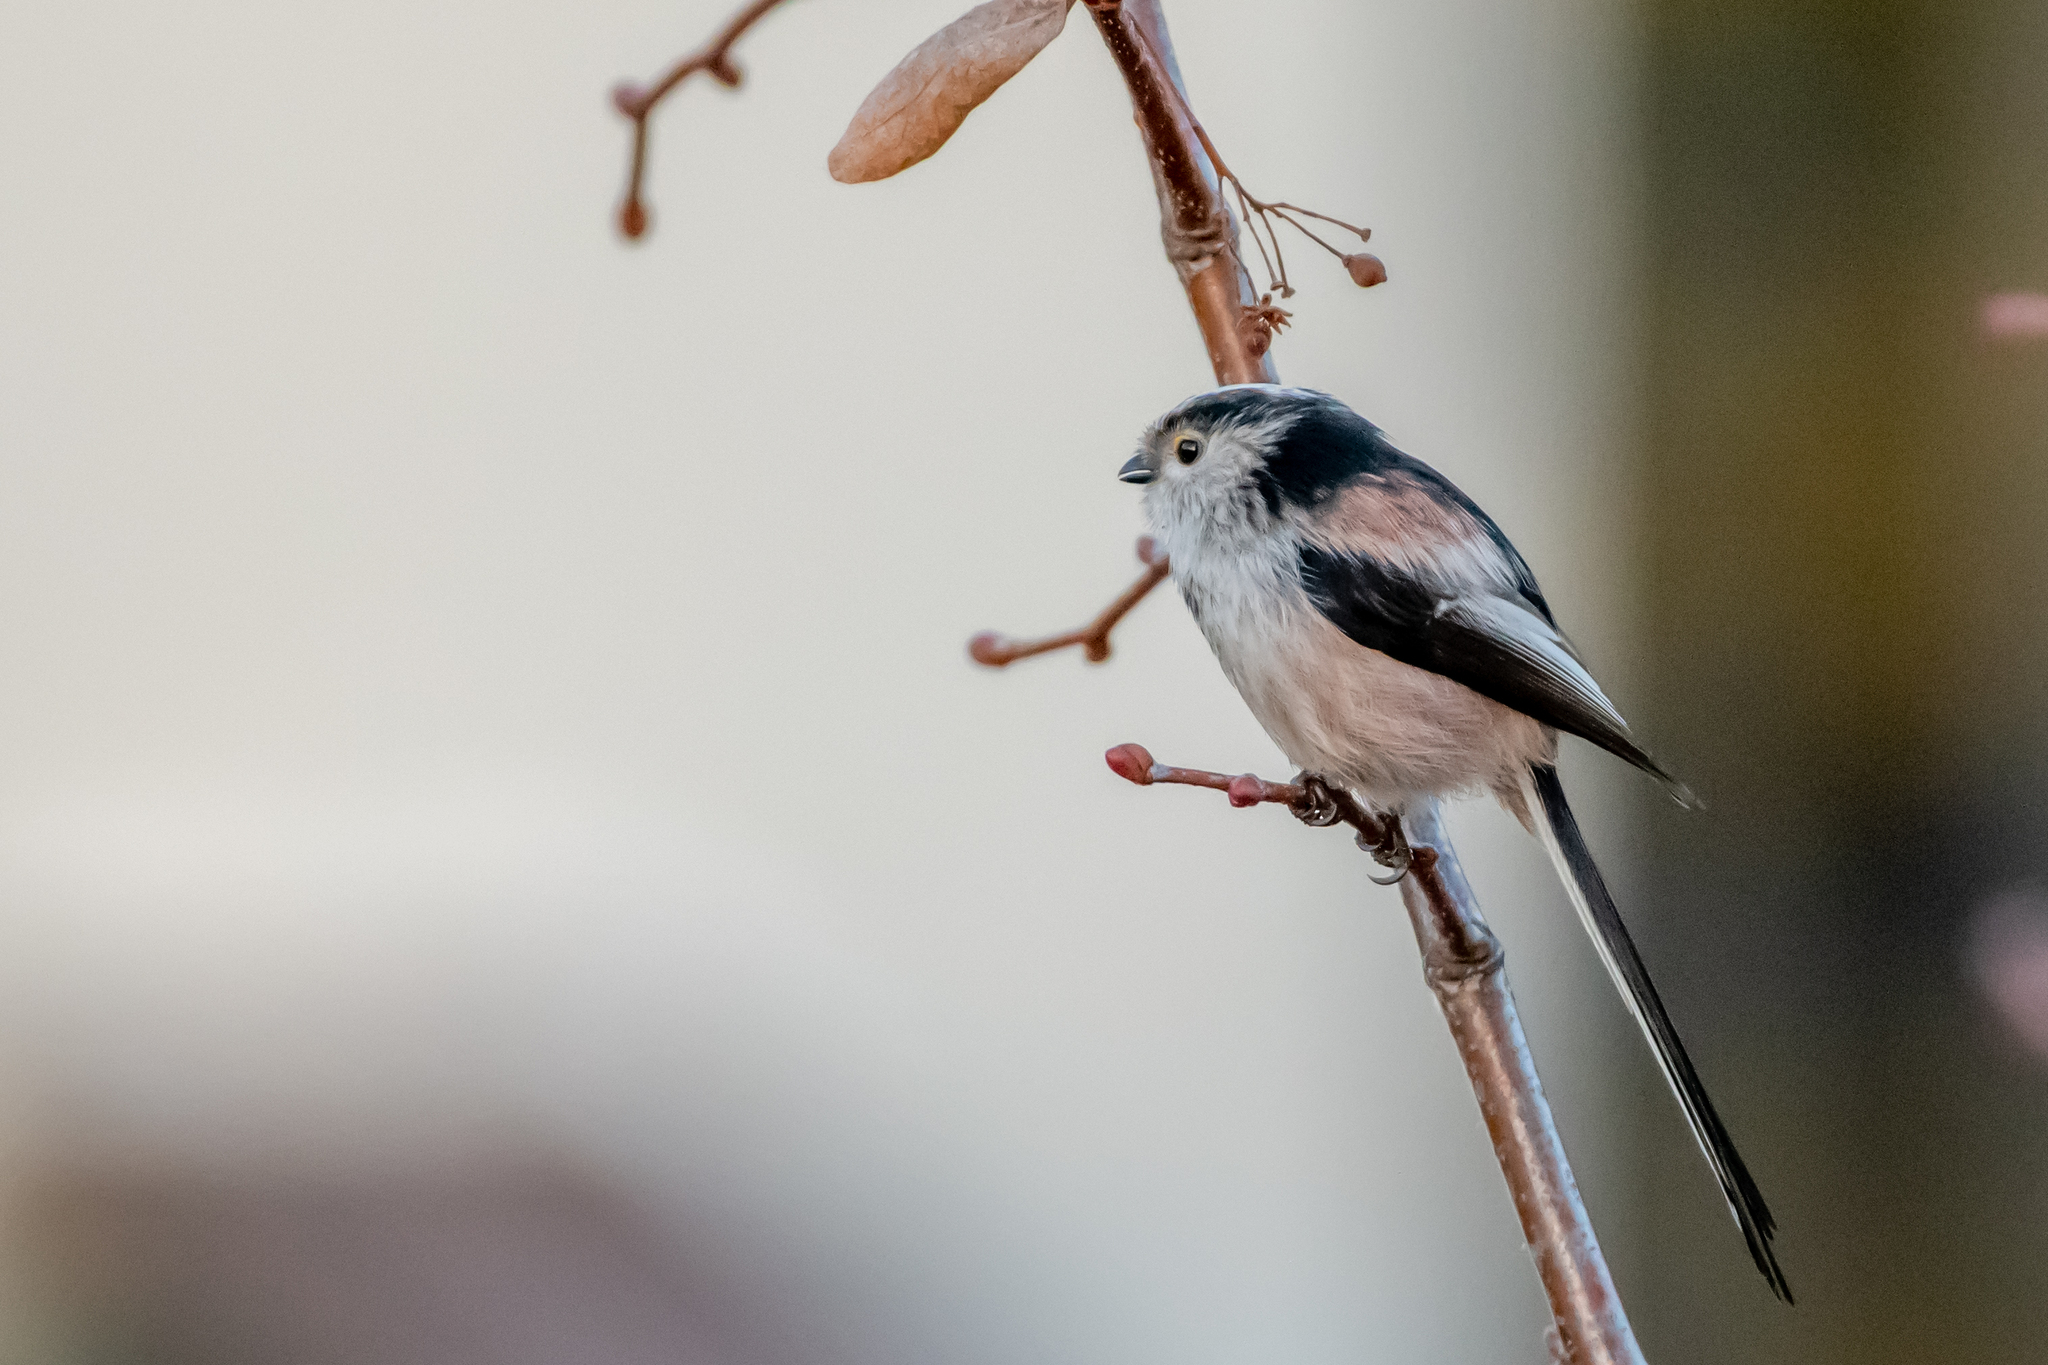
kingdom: Animalia
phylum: Chordata
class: Aves
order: Passeriformes
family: Aegithalidae
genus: Aegithalos
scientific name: Aegithalos caudatus
